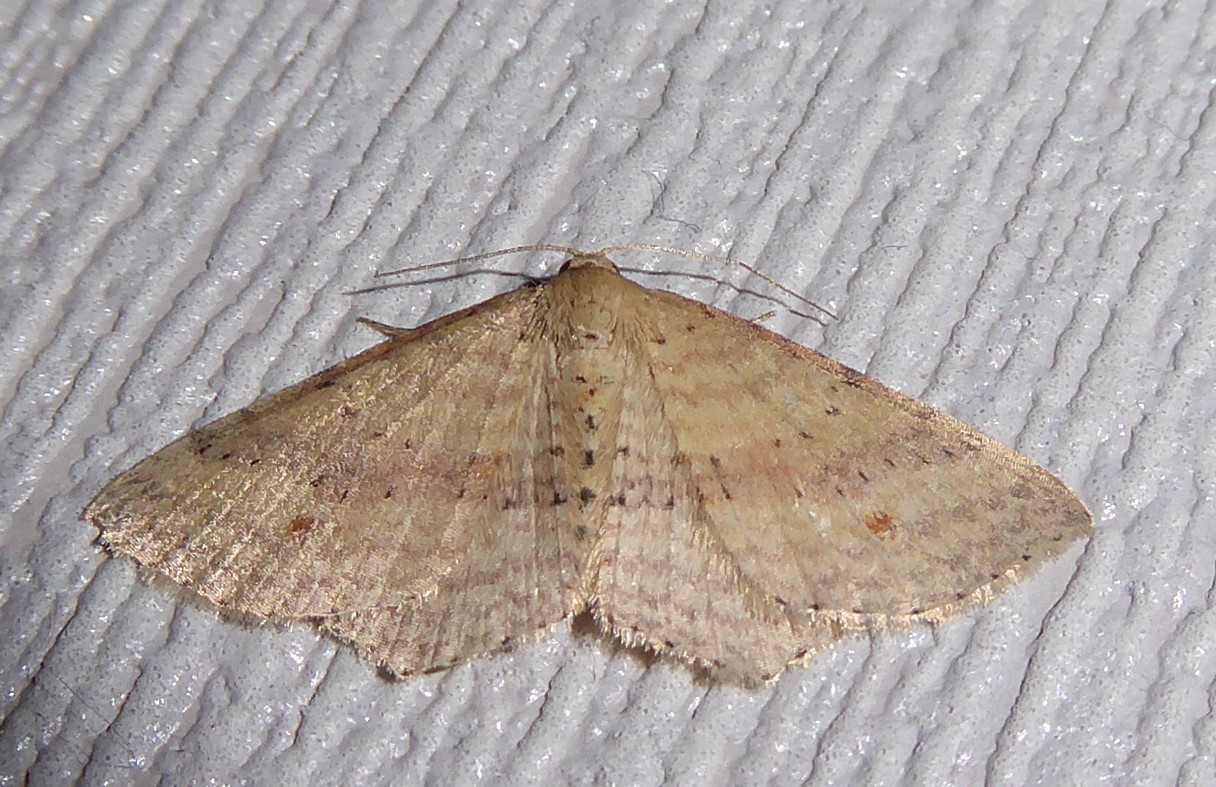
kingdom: Animalia
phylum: Arthropoda
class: Insecta
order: Lepidoptera
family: Geometridae
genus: Epicyme
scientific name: Epicyme rubropunctaria
